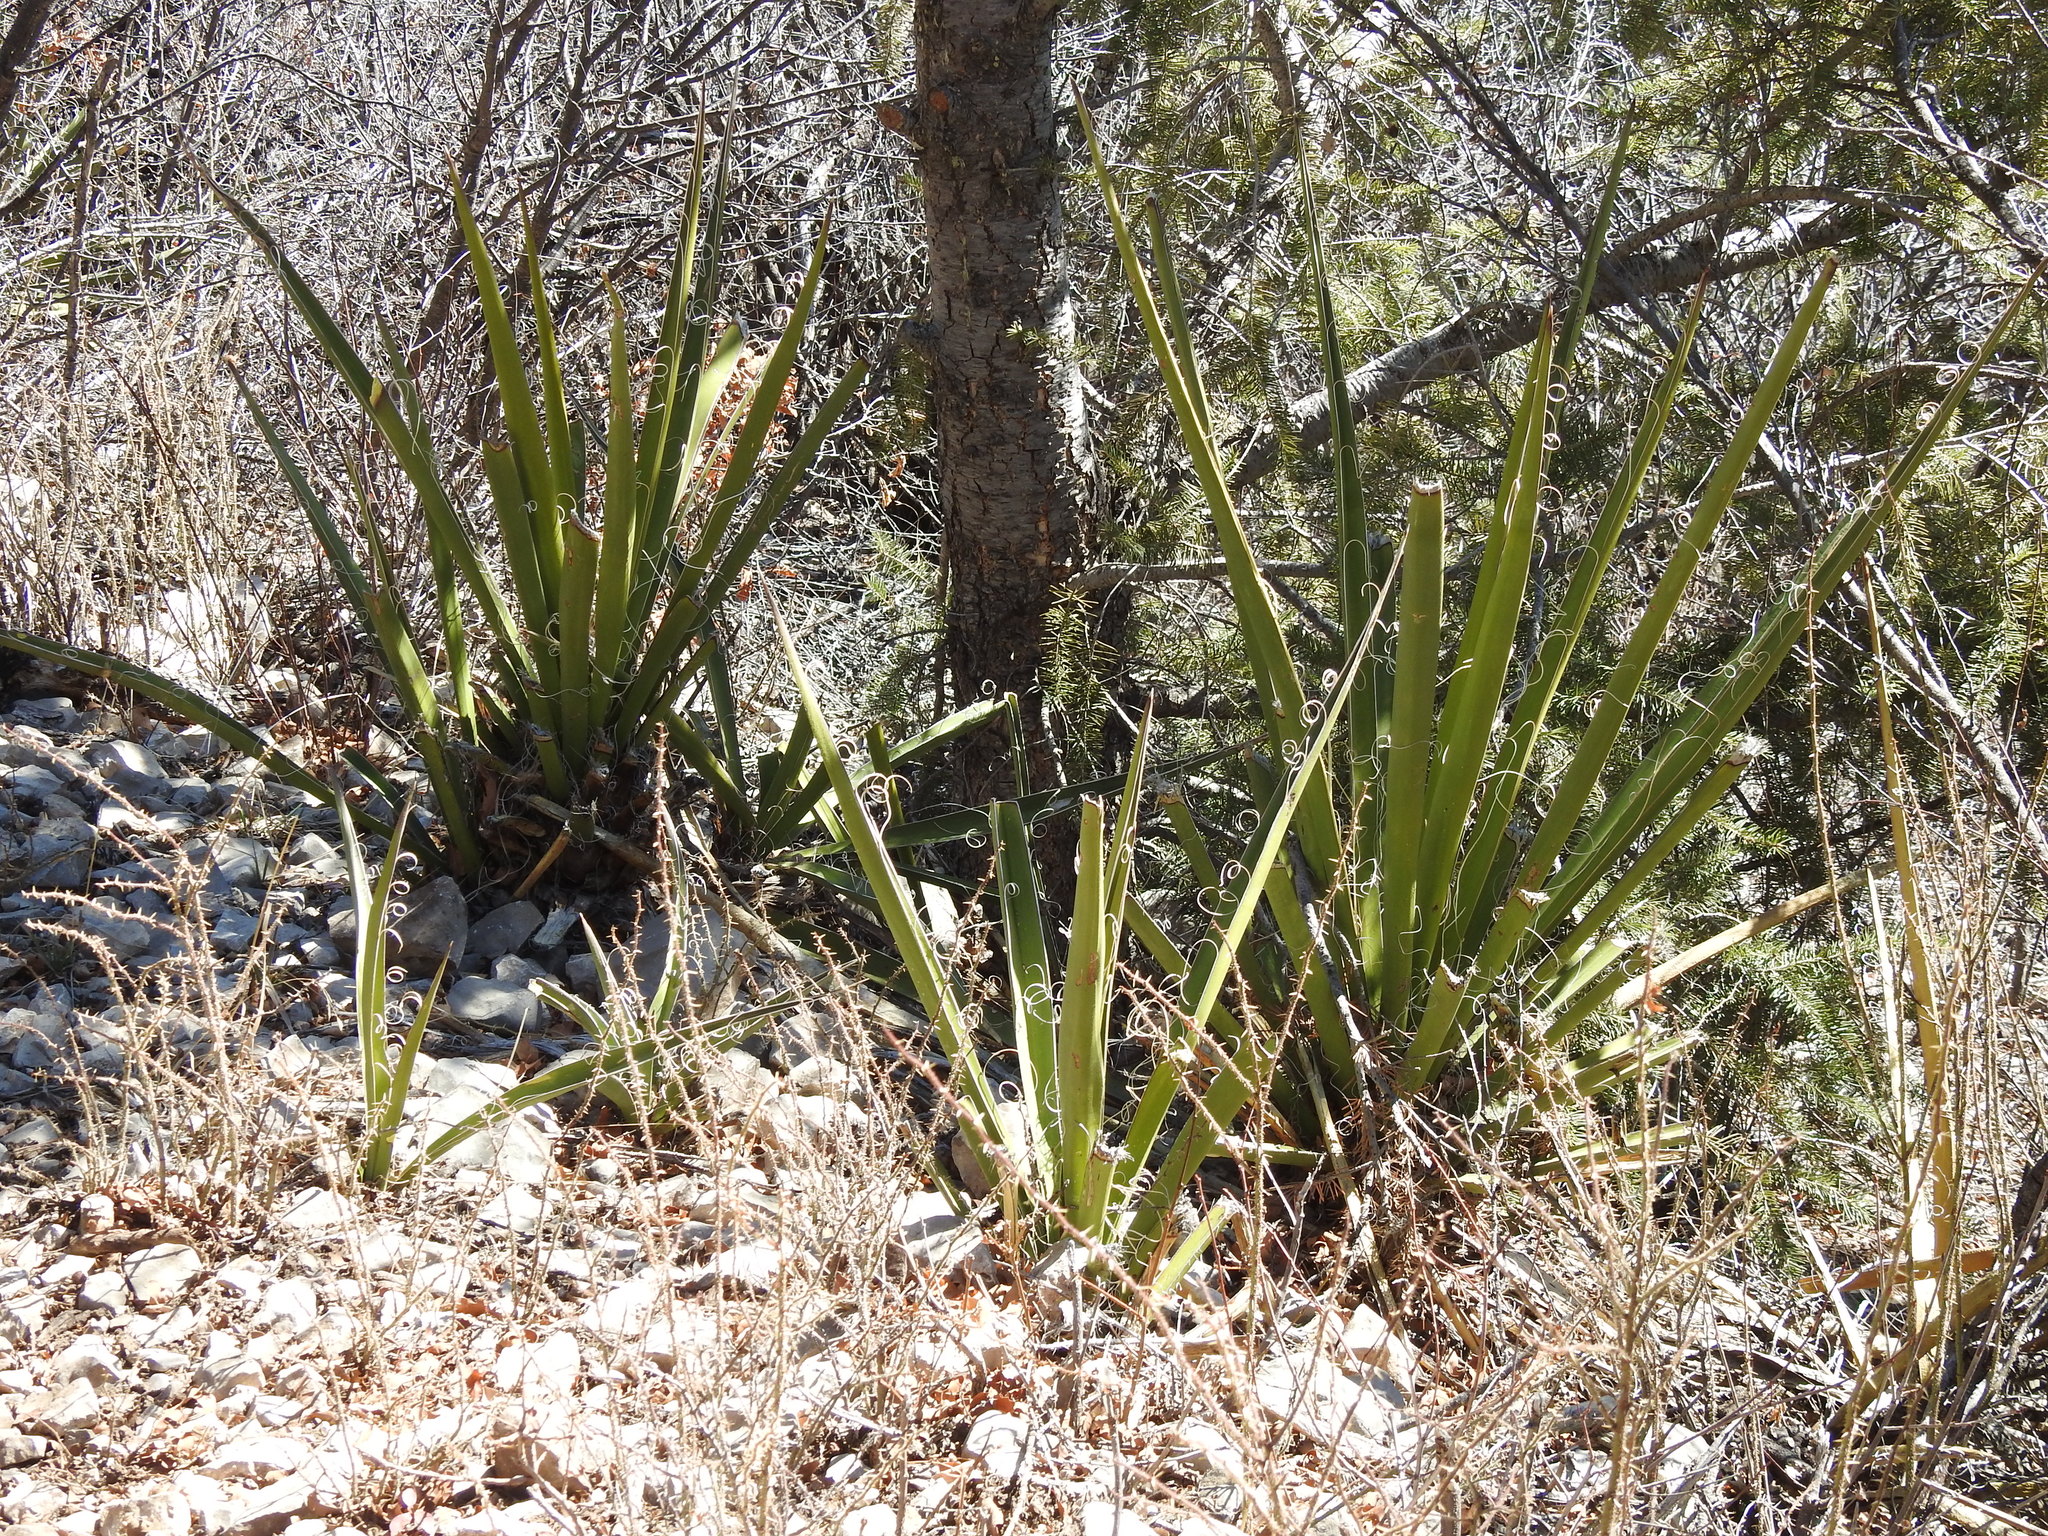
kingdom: Plantae
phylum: Tracheophyta
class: Liliopsida
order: Asparagales
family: Asparagaceae
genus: Yucca
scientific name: Yucca baccata
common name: Banana yucca
